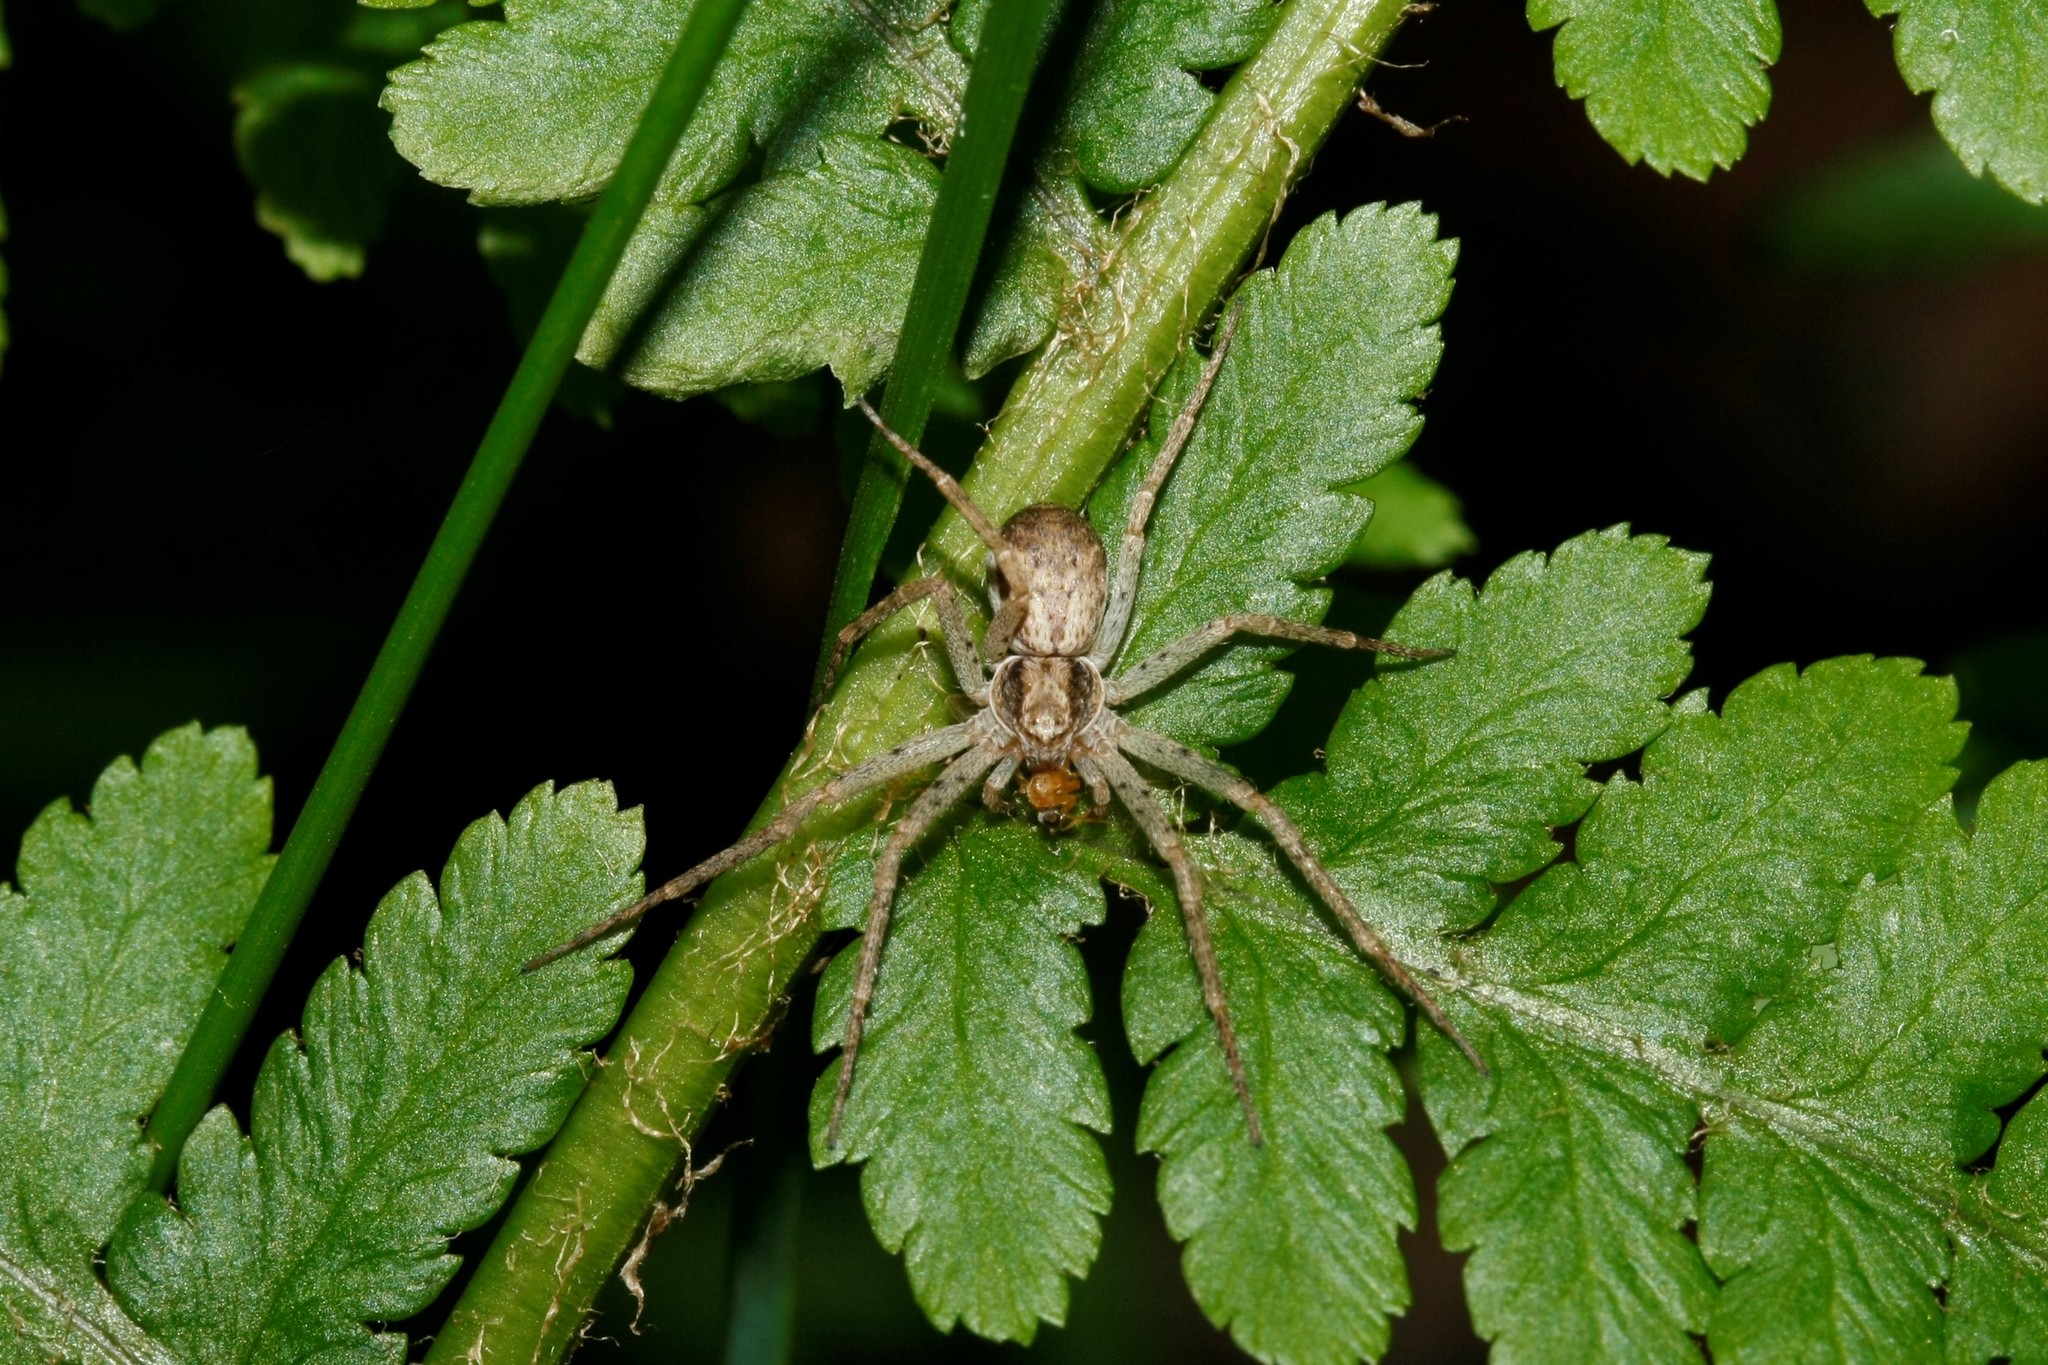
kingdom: Animalia
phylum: Arthropoda
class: Arachnida
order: Araneae
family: Philodromidae
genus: Philodromus
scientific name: Philodromus dispar
